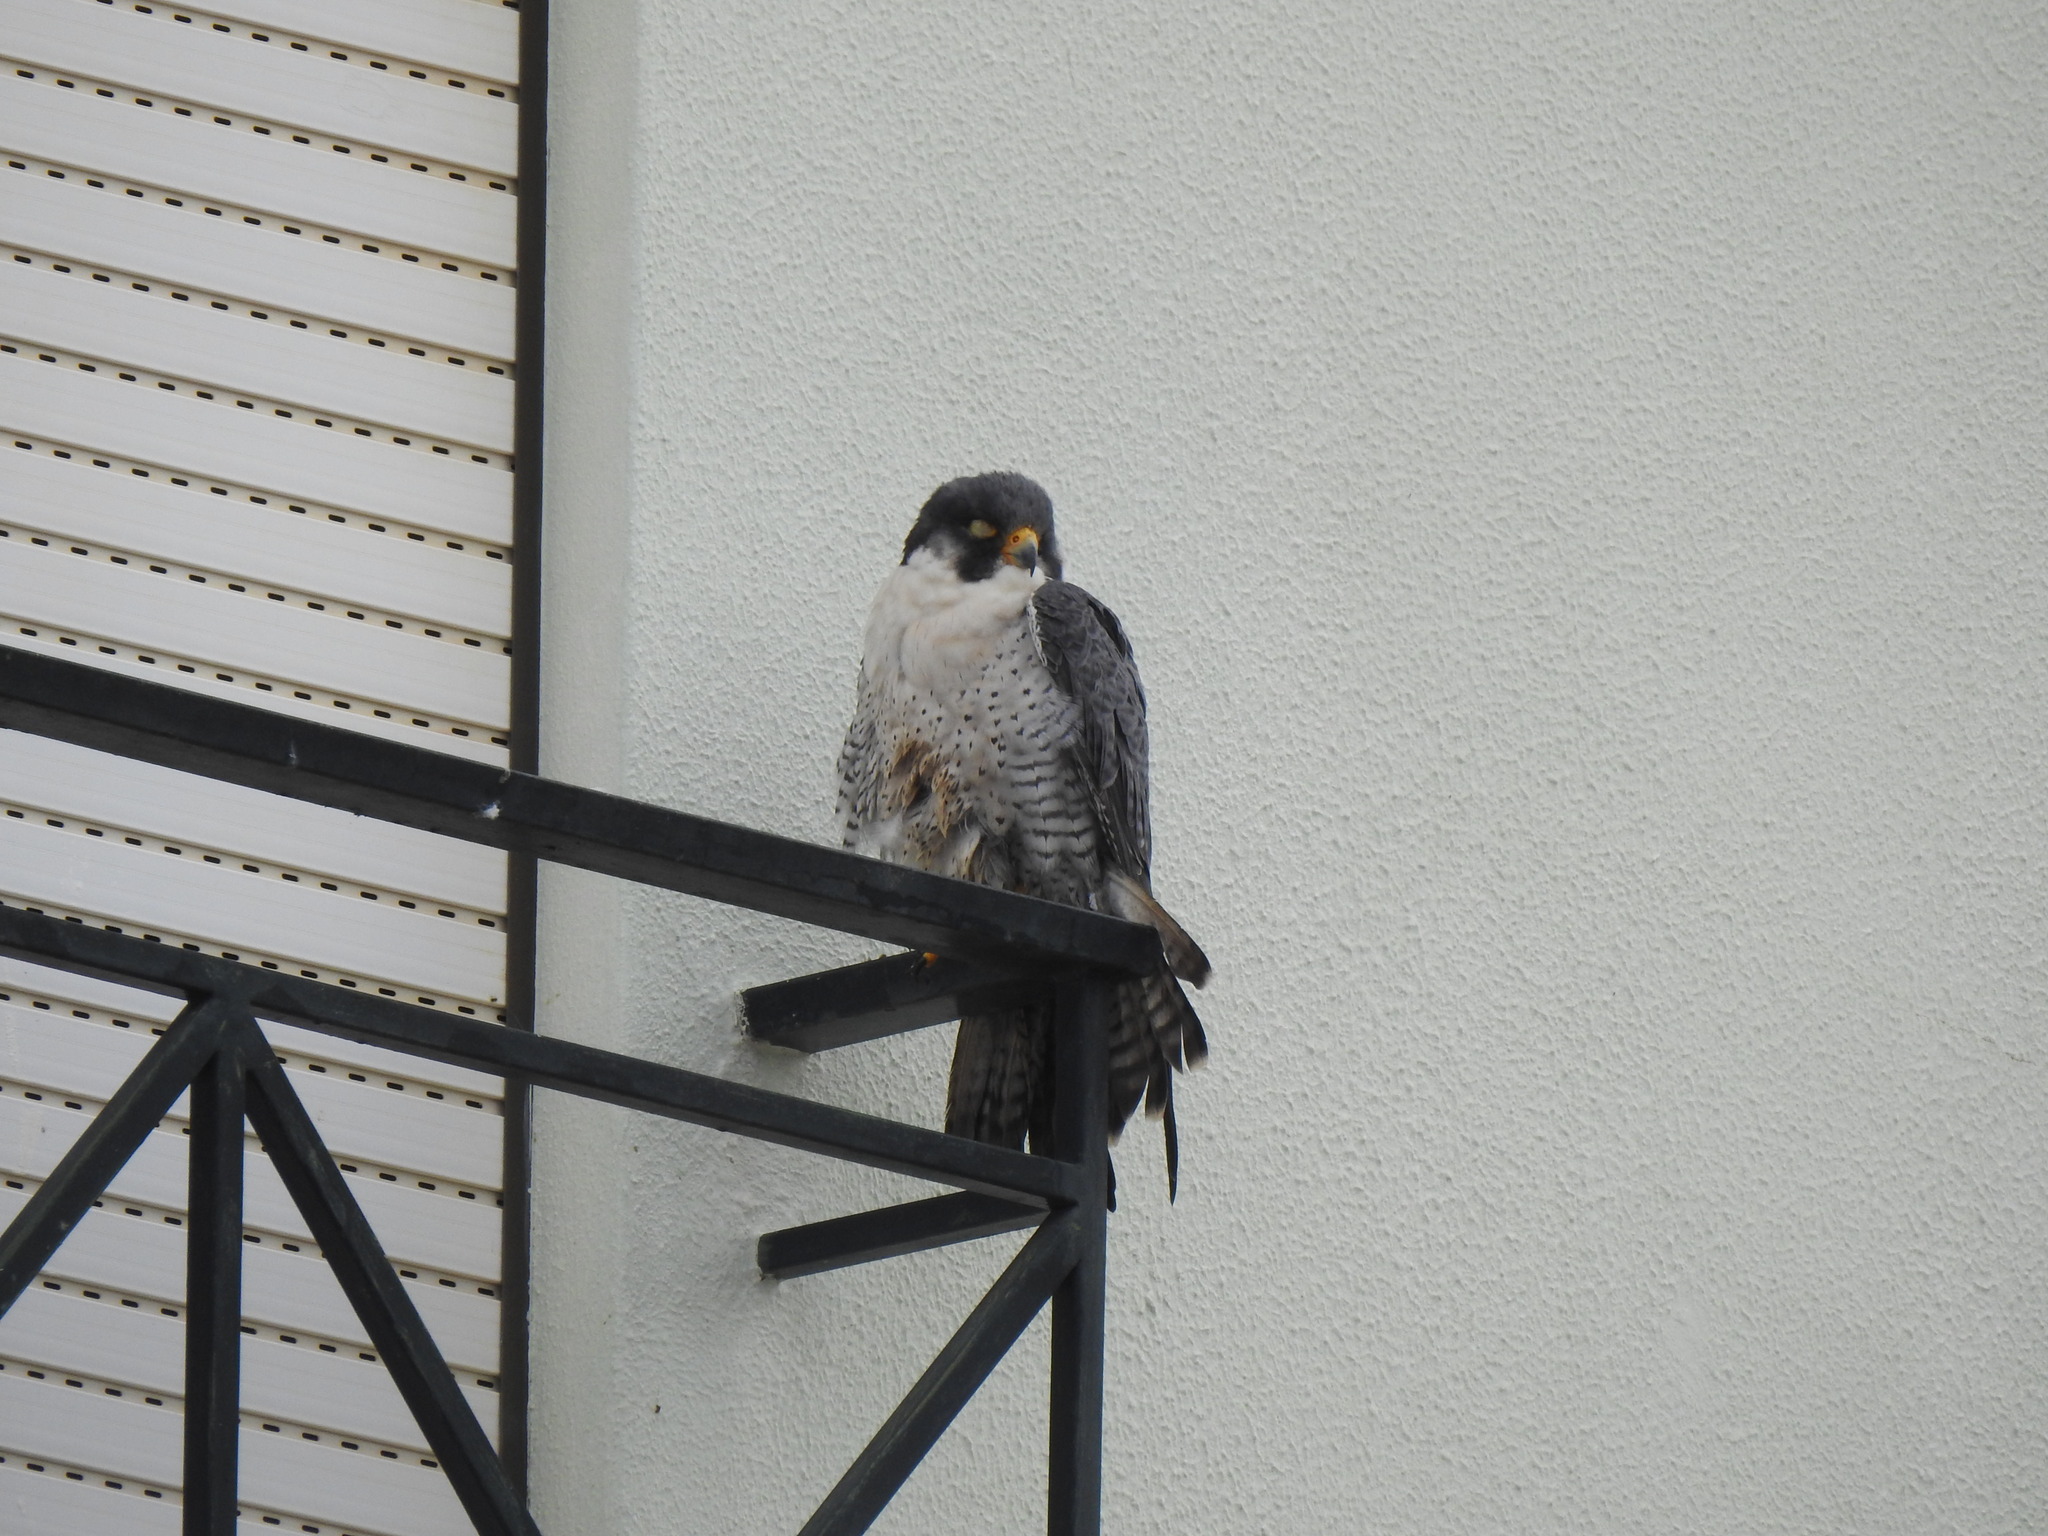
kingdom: Animalia
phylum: Chordata
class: Aves
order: Falconiformes
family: Falconidae
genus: Falco
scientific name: Falco peregrinus
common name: Peregrine falcon
